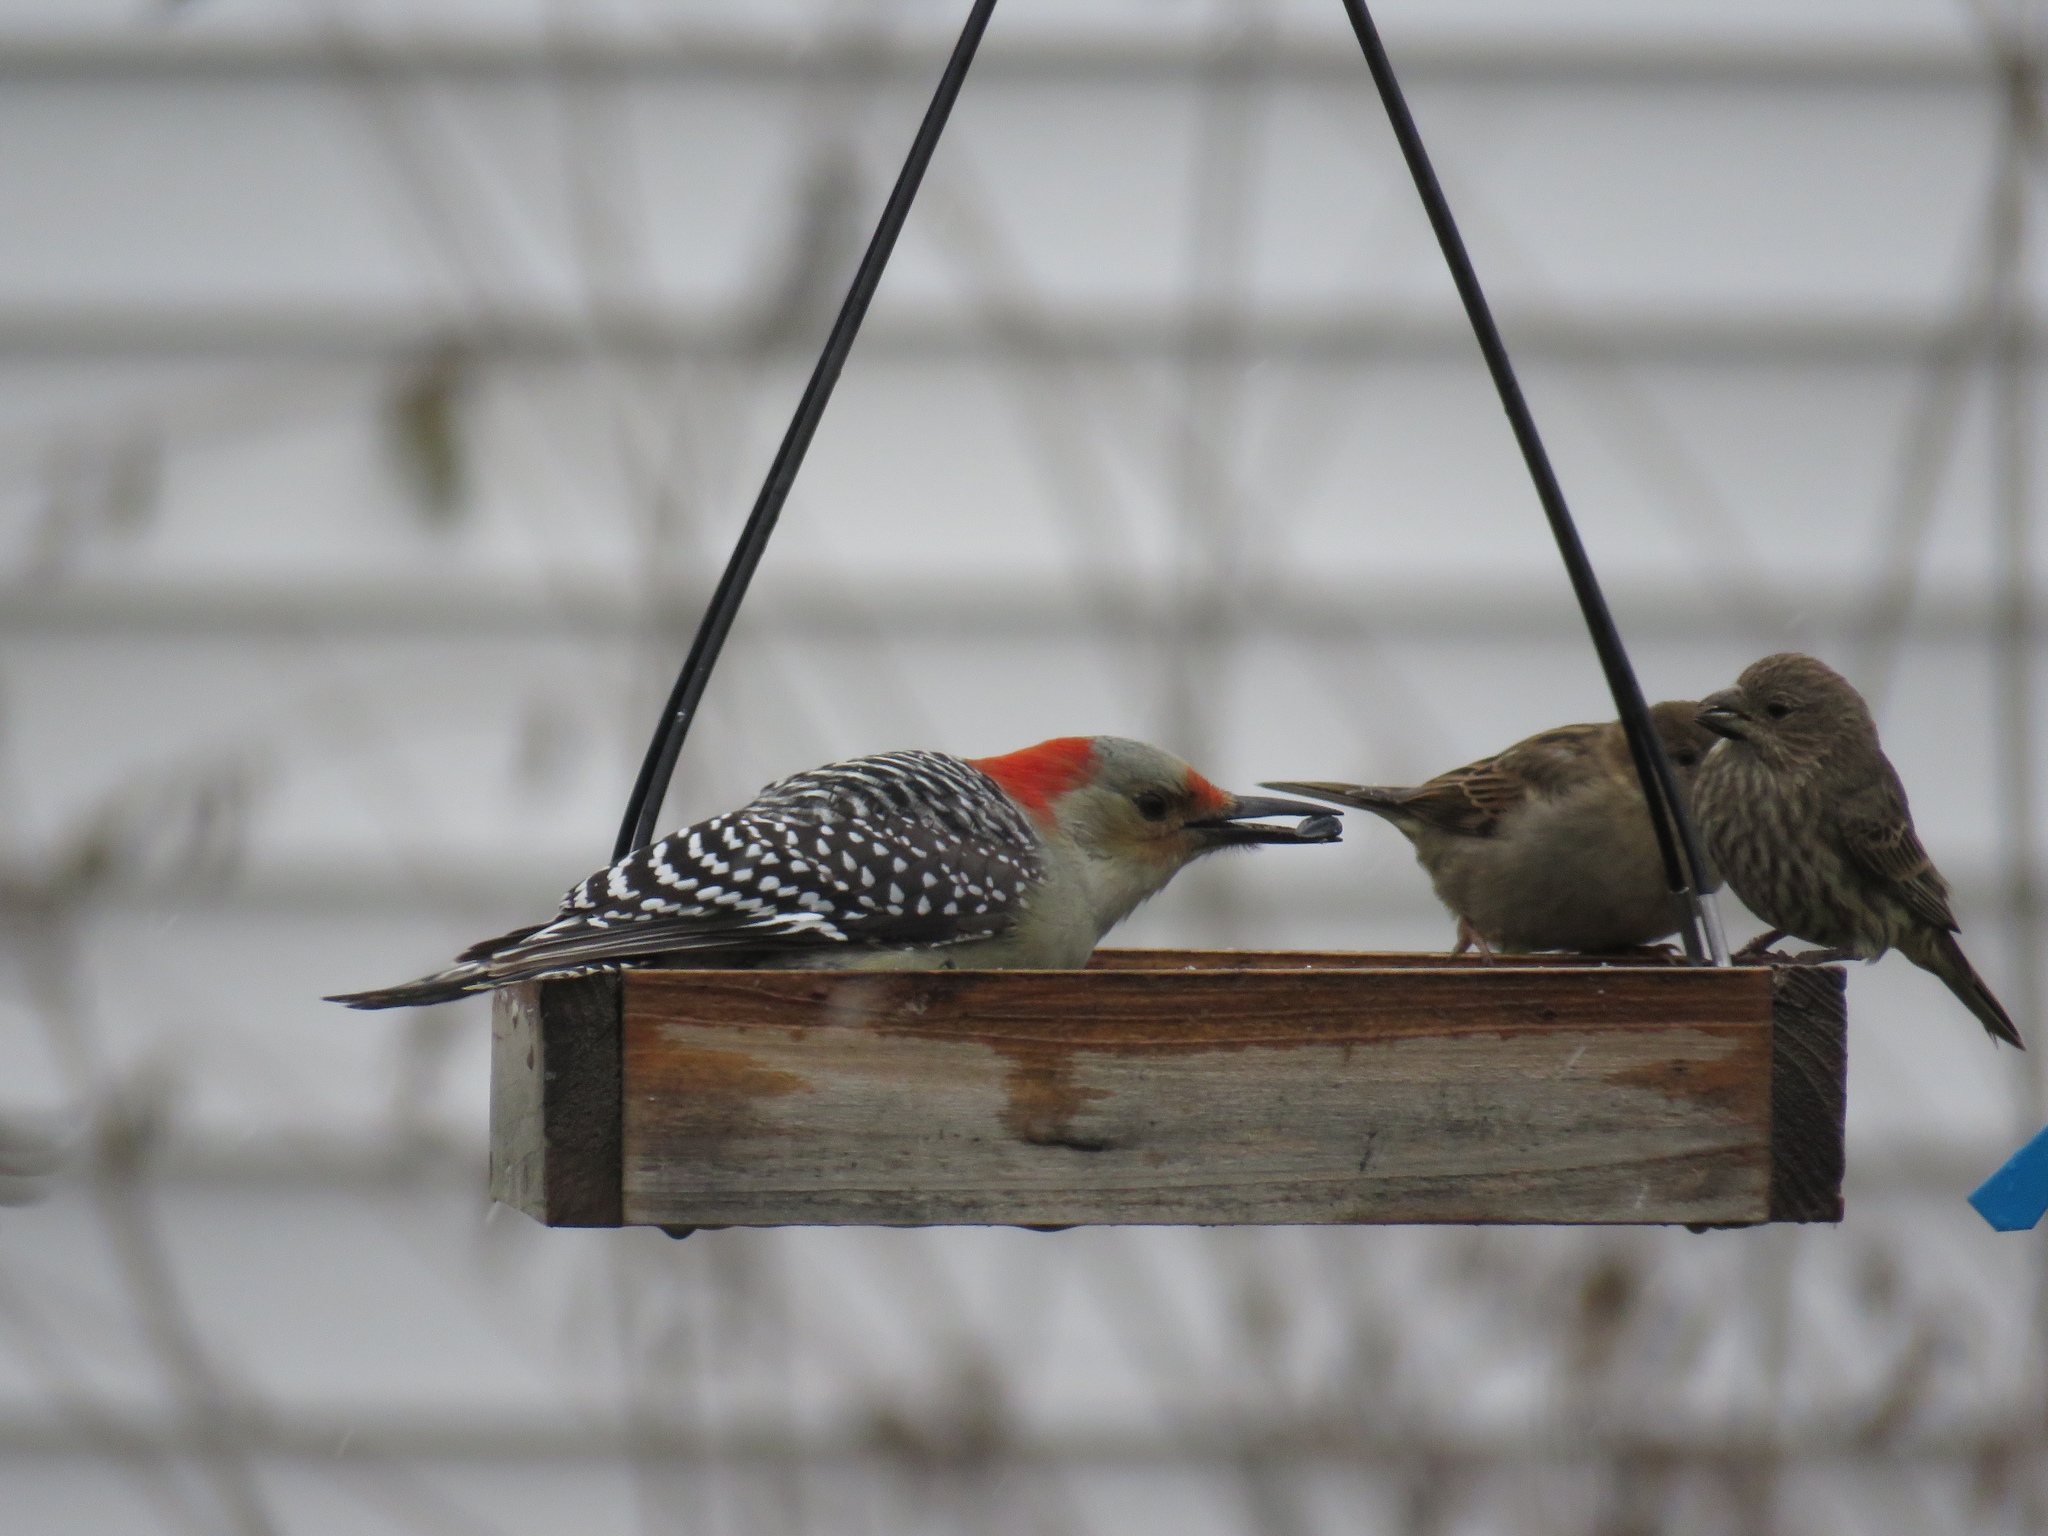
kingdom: Animalia
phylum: Chordata
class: Aves
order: Piciformes
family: Picidae
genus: Melanerpes
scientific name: Melanerpes carolinus
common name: Red-bellied woodpecker
